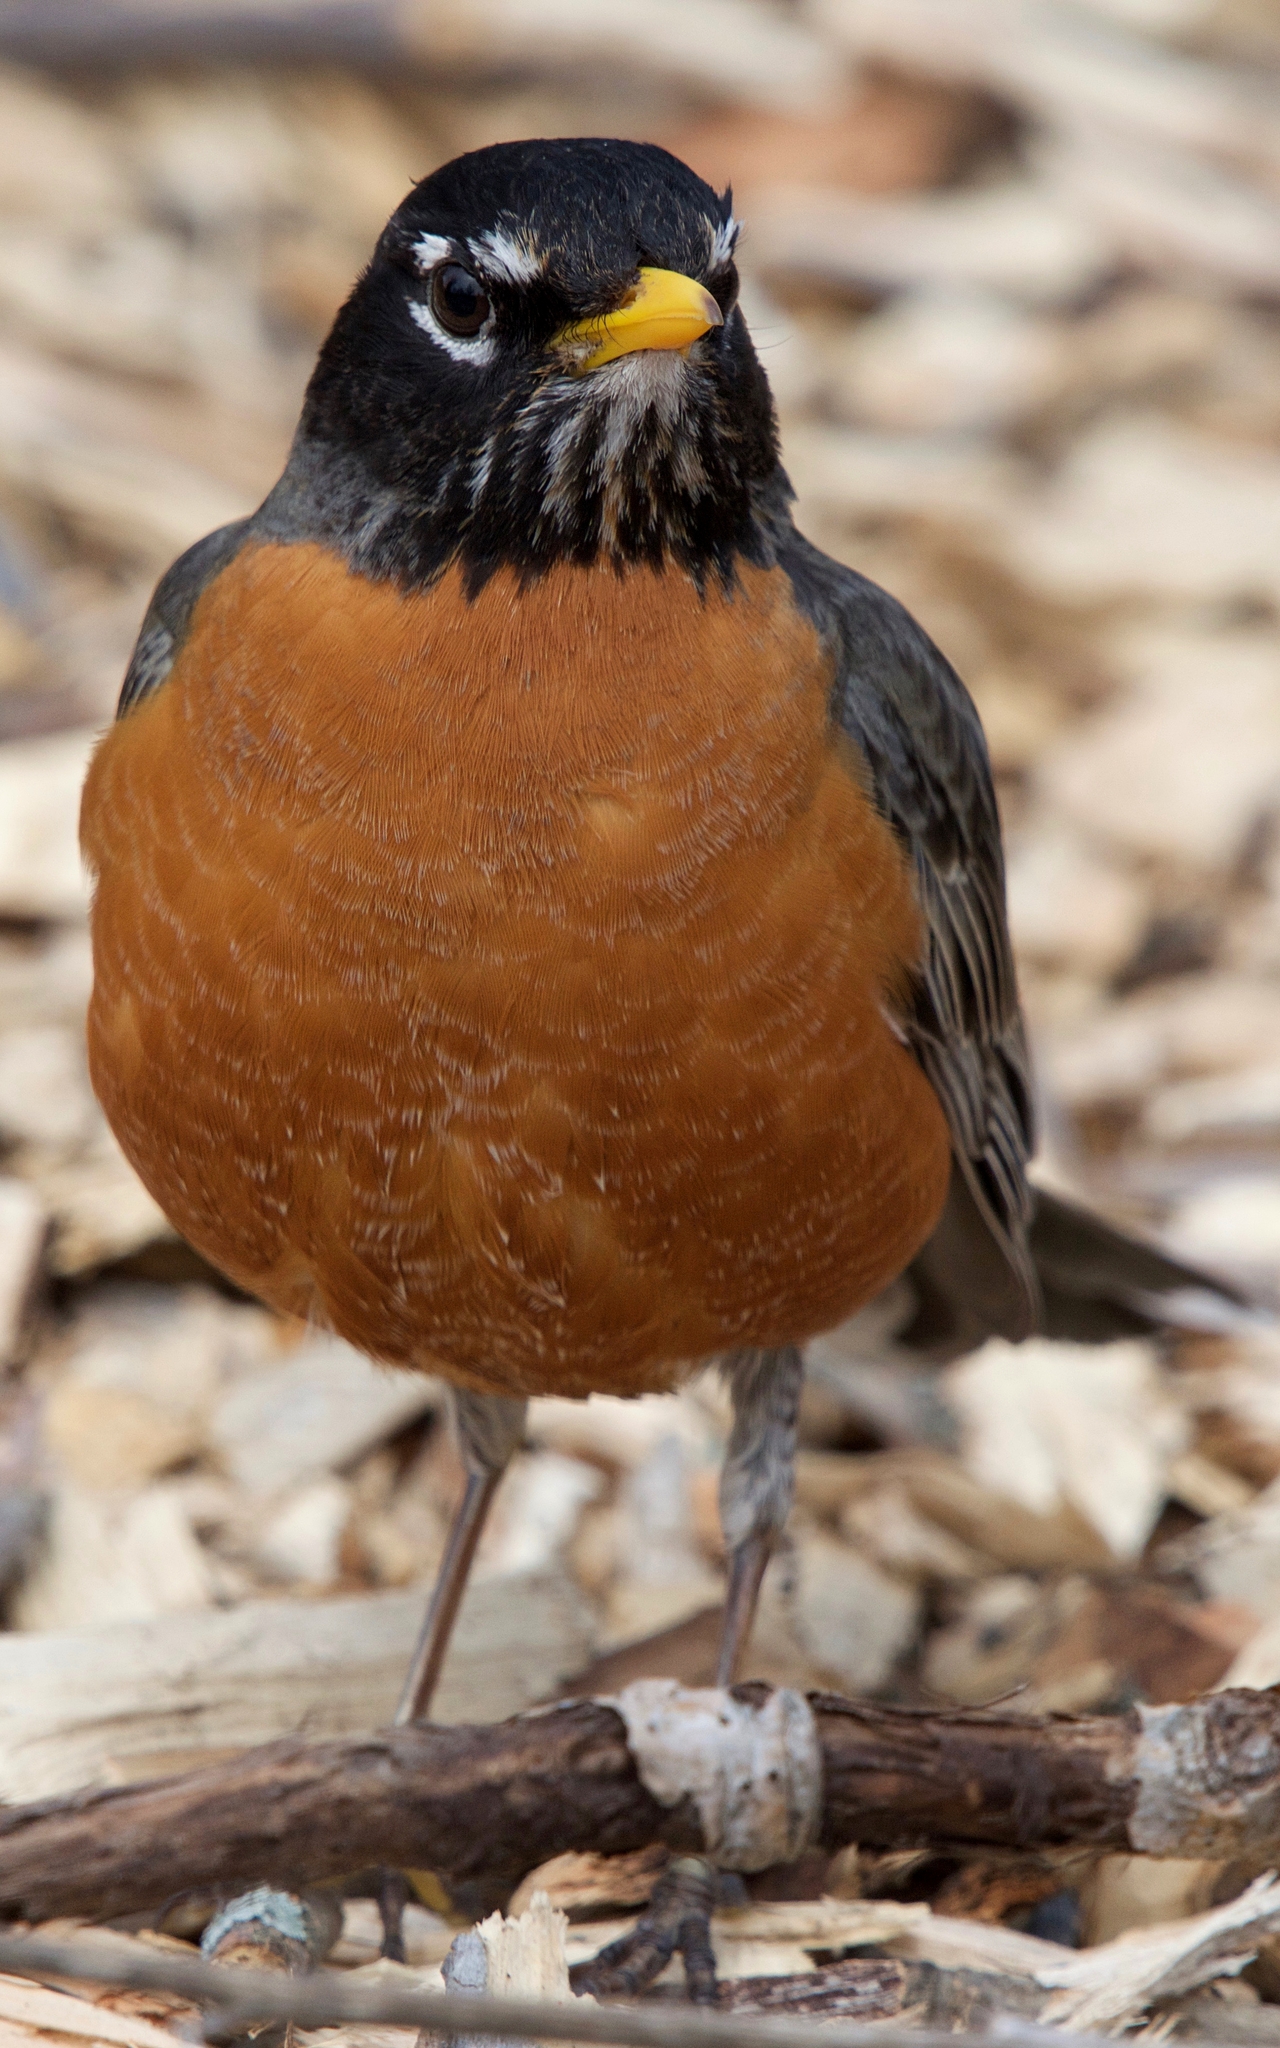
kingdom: Animalia
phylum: Chordata
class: Aves
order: Passeriformes
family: Turdidae
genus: Turdus
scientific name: Turdus migratorius
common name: American robin
